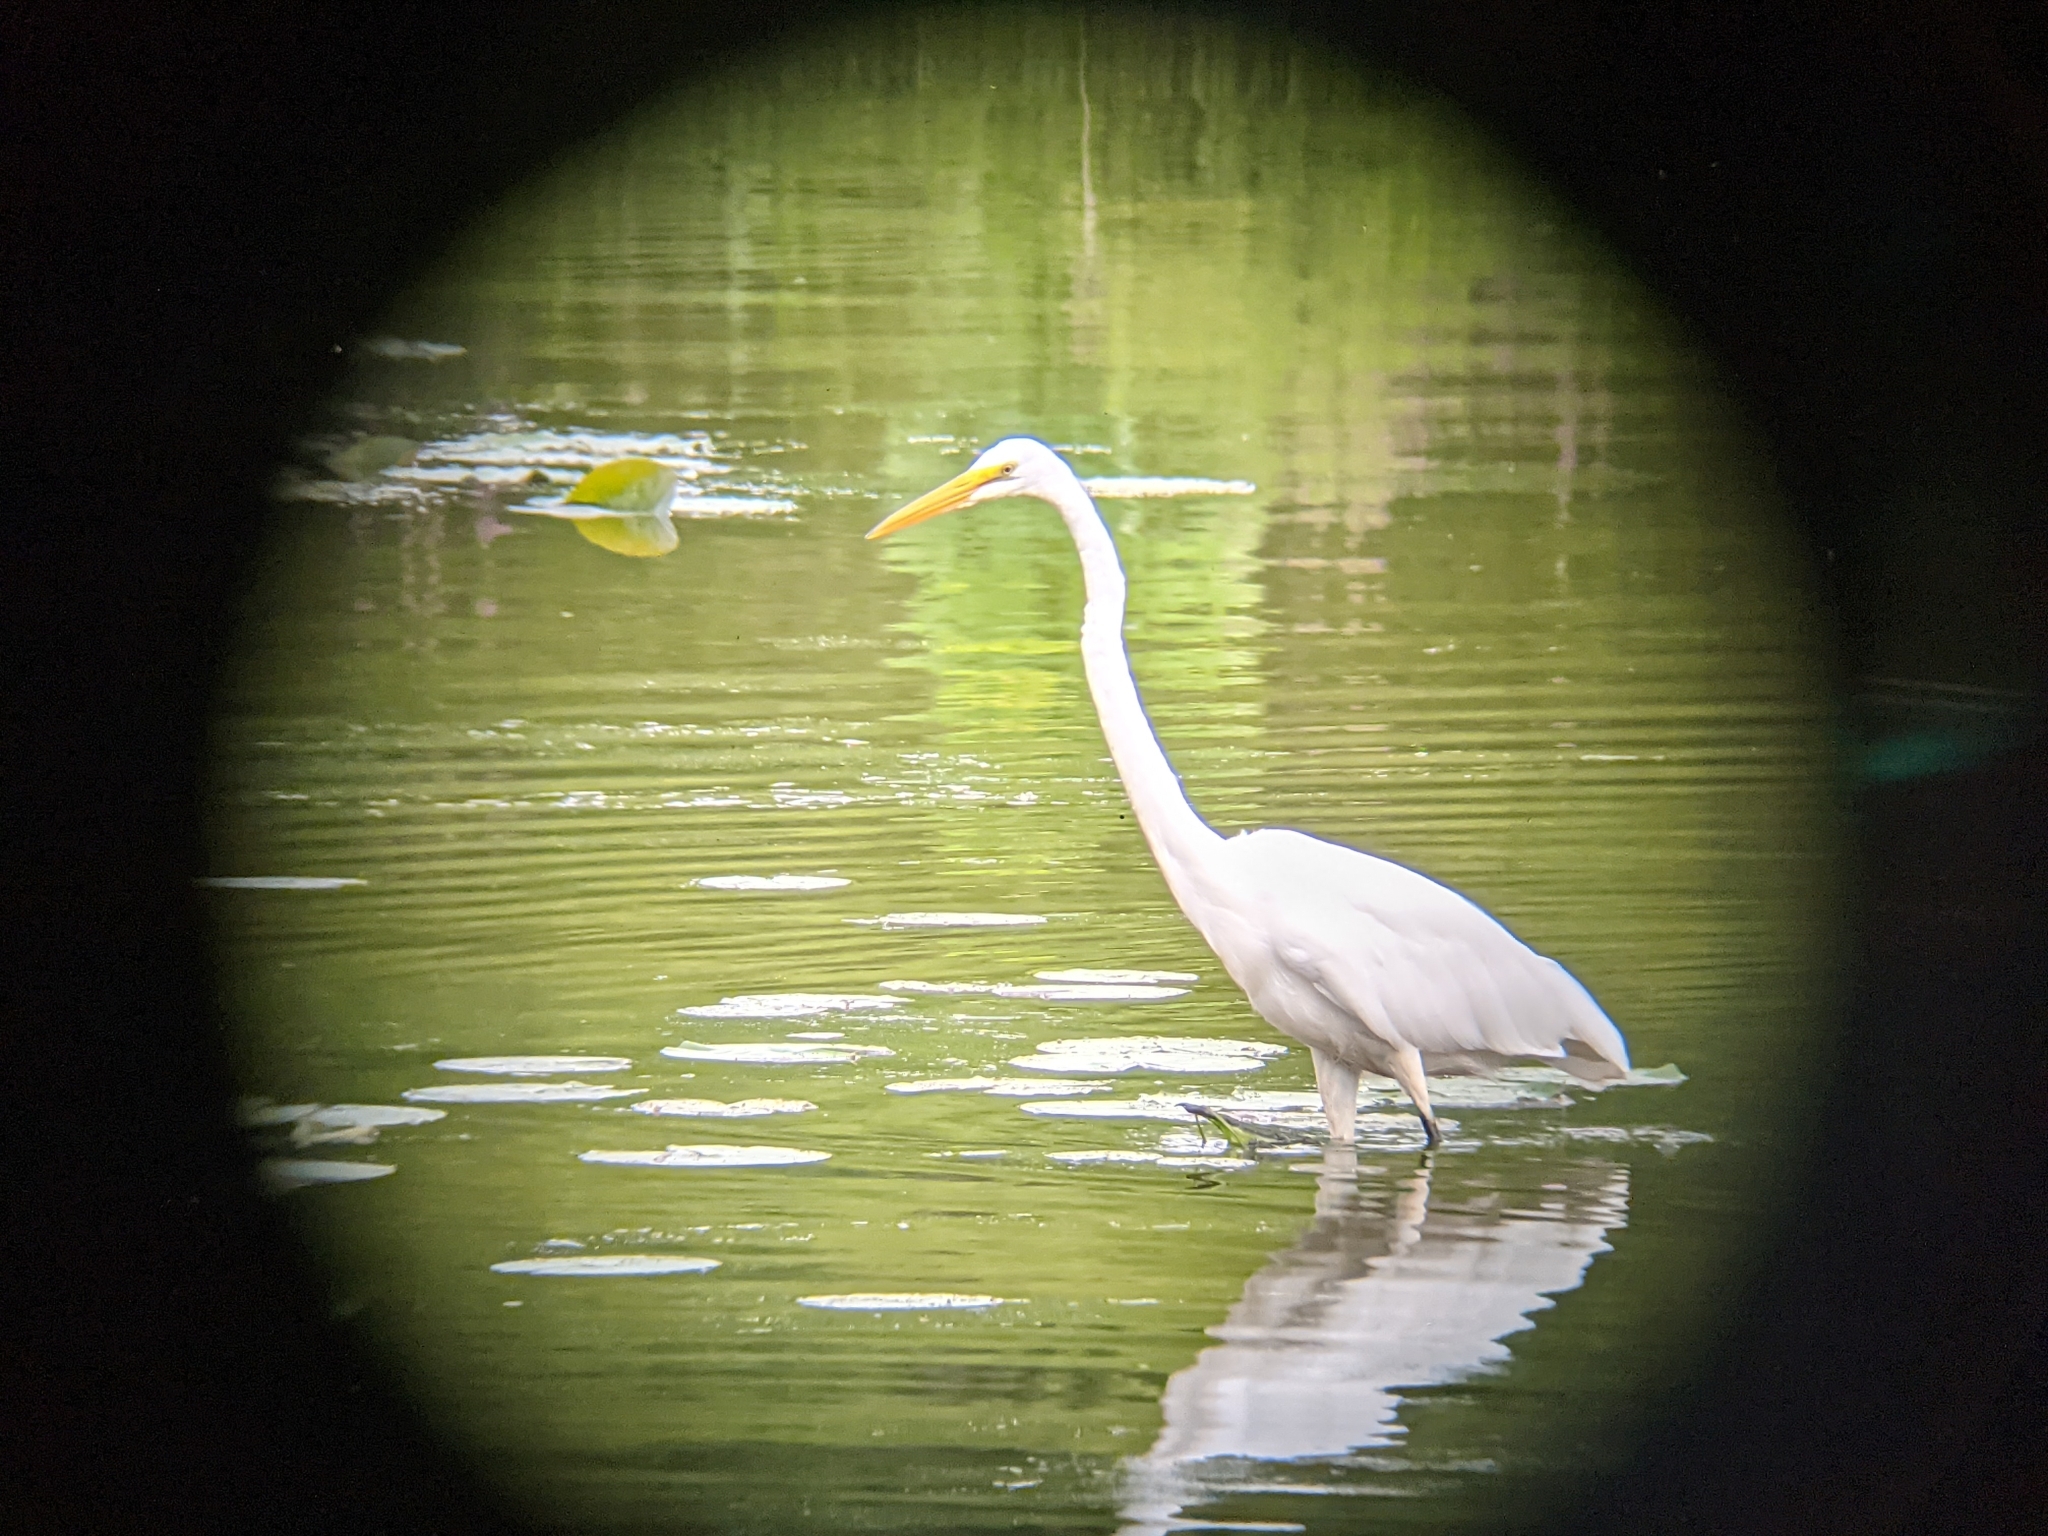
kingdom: Animalia
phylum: Chordata
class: Aves
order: Pelecaniformes
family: Ardeidae
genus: Ardea
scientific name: Ardea alba
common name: Great egret
